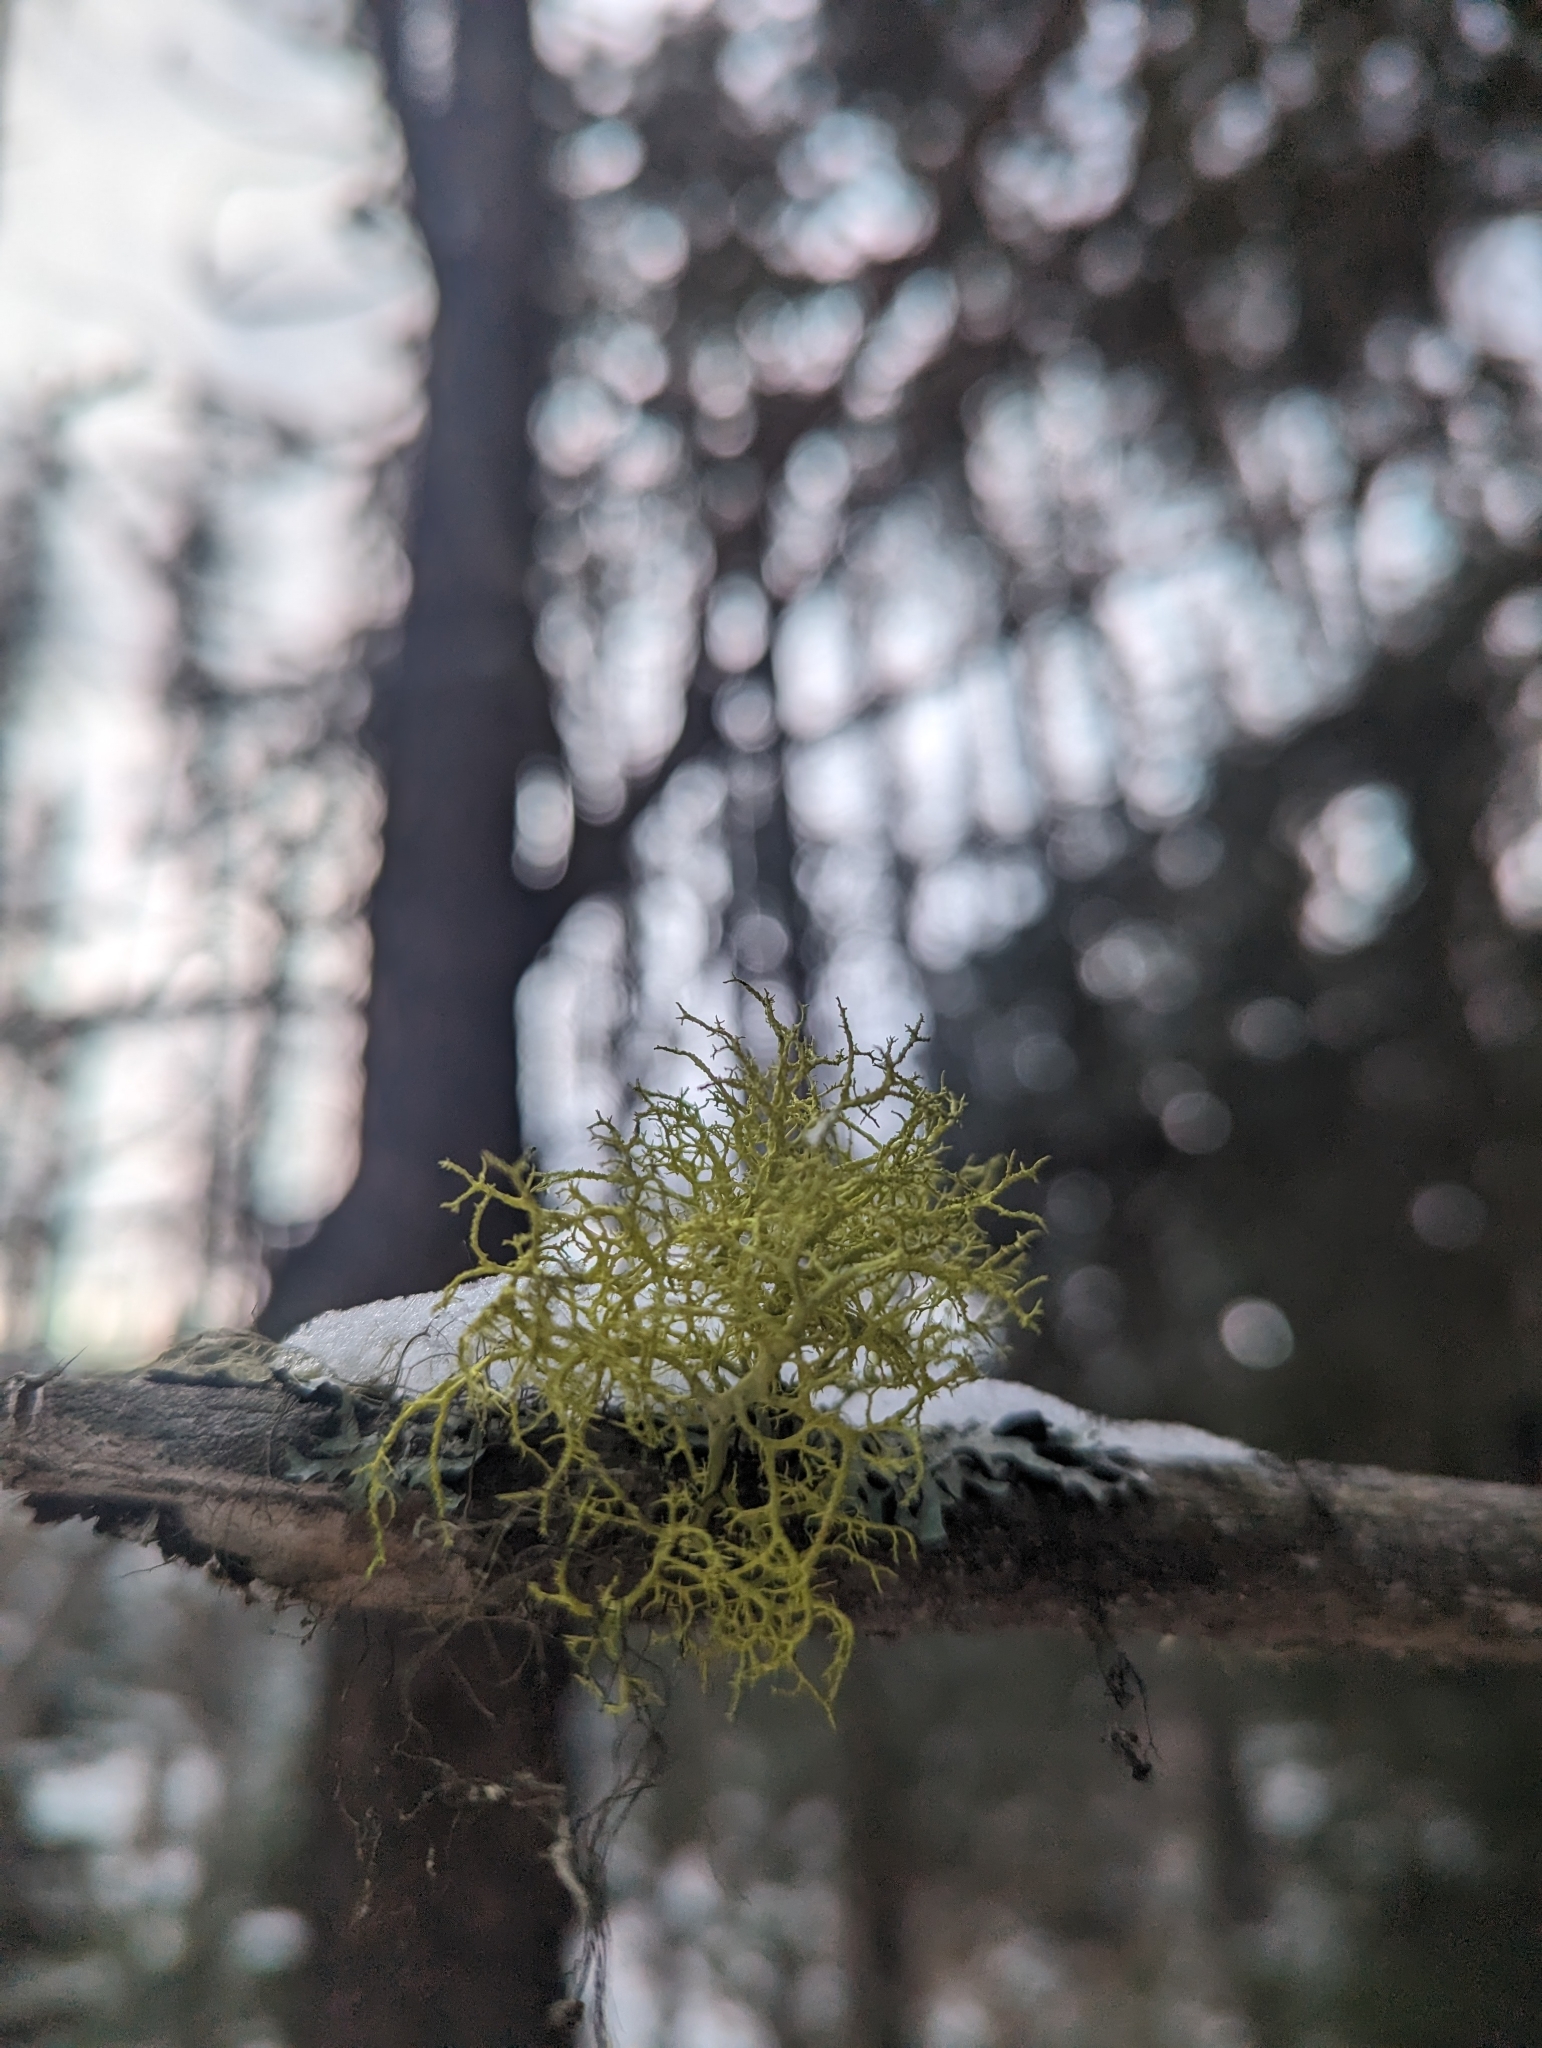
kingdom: Fungi
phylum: Ascomycota
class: Lecanoromycetes
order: Lecanorales
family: Parmeliaceae
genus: Letharia
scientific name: Letharia vulpina
